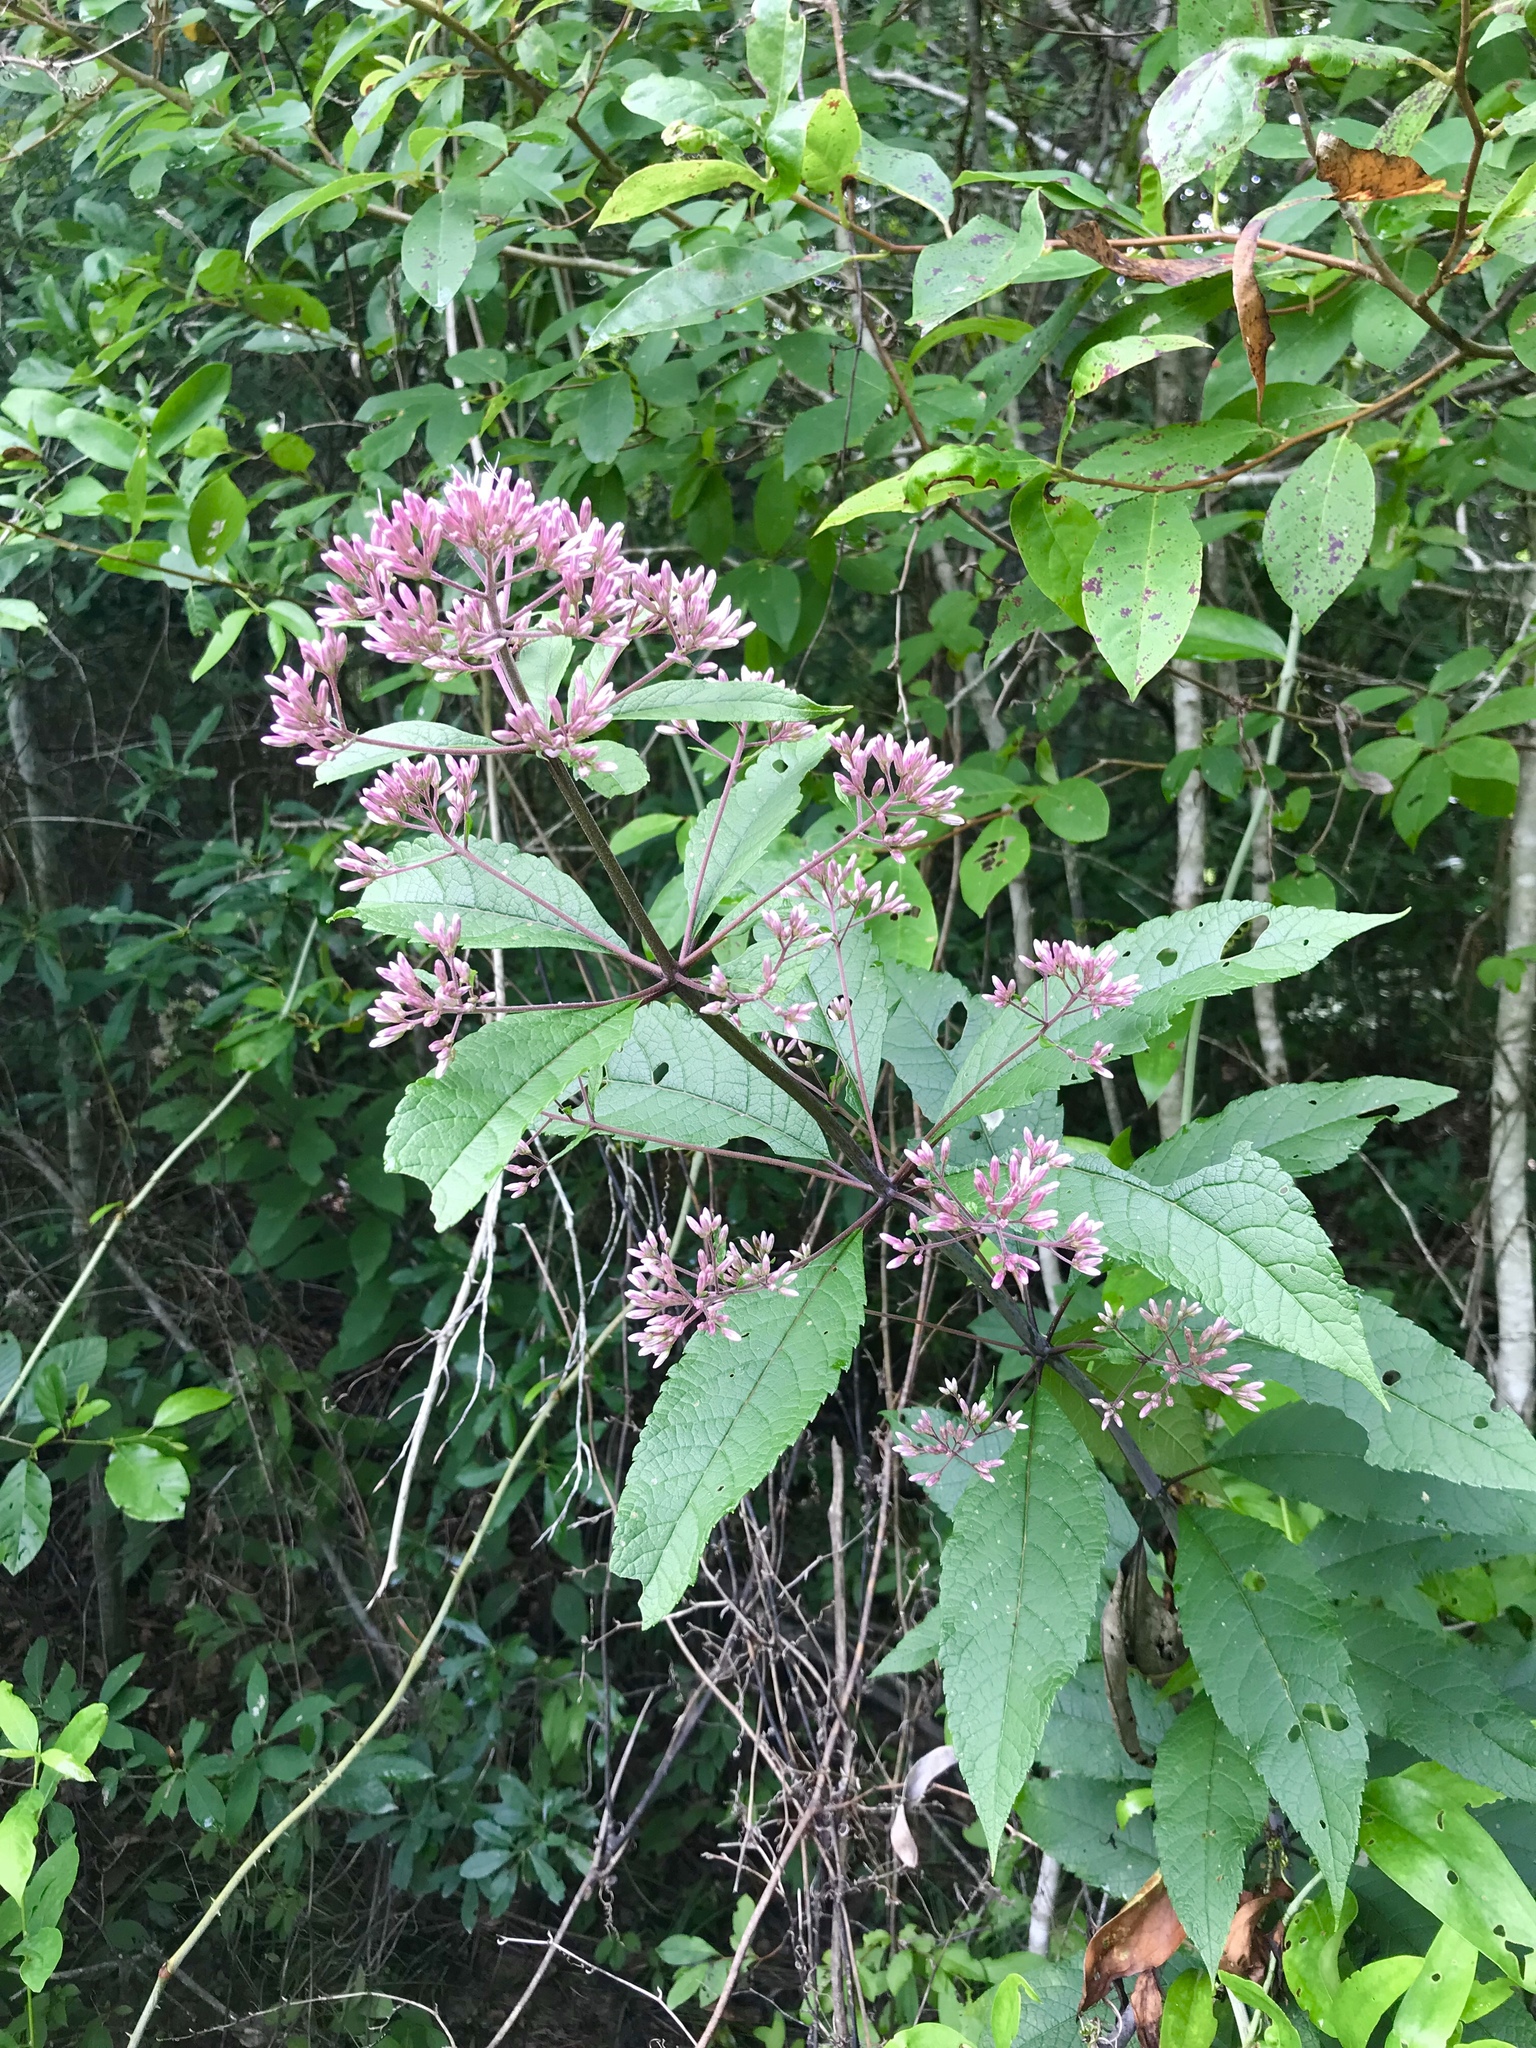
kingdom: Plantae
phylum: Tracheophyta
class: Magnoliopsida
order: Asterales
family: Asteraceae
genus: Eutrochium
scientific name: Eutrochium fistulosum
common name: Trumpetweed
